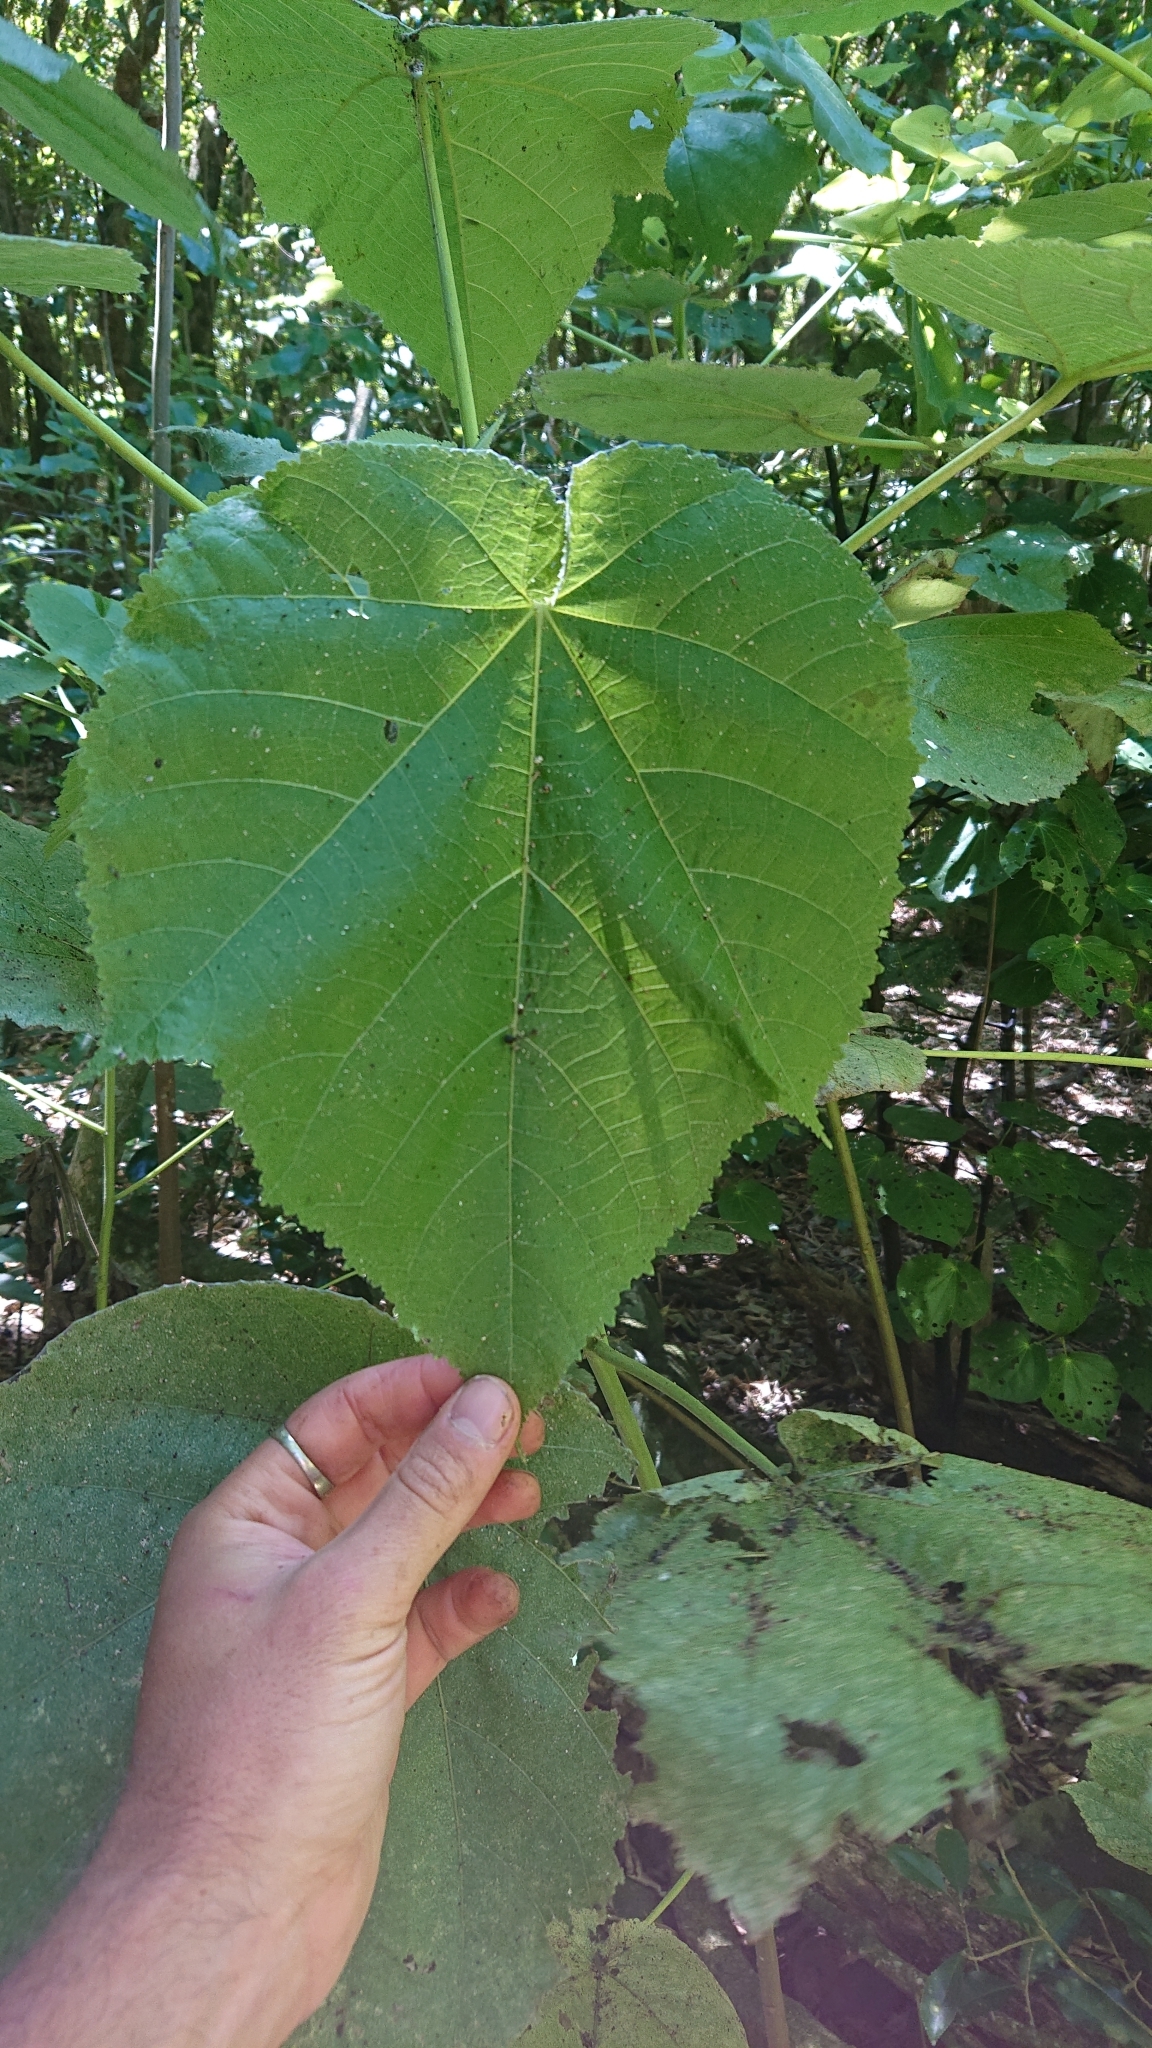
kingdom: Plantae
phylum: Tracheophyta
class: Magnoliopsida
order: Malvales
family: Malvaceae
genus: Entelea
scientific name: Entelea arborescens
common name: New zealand-mulberry
